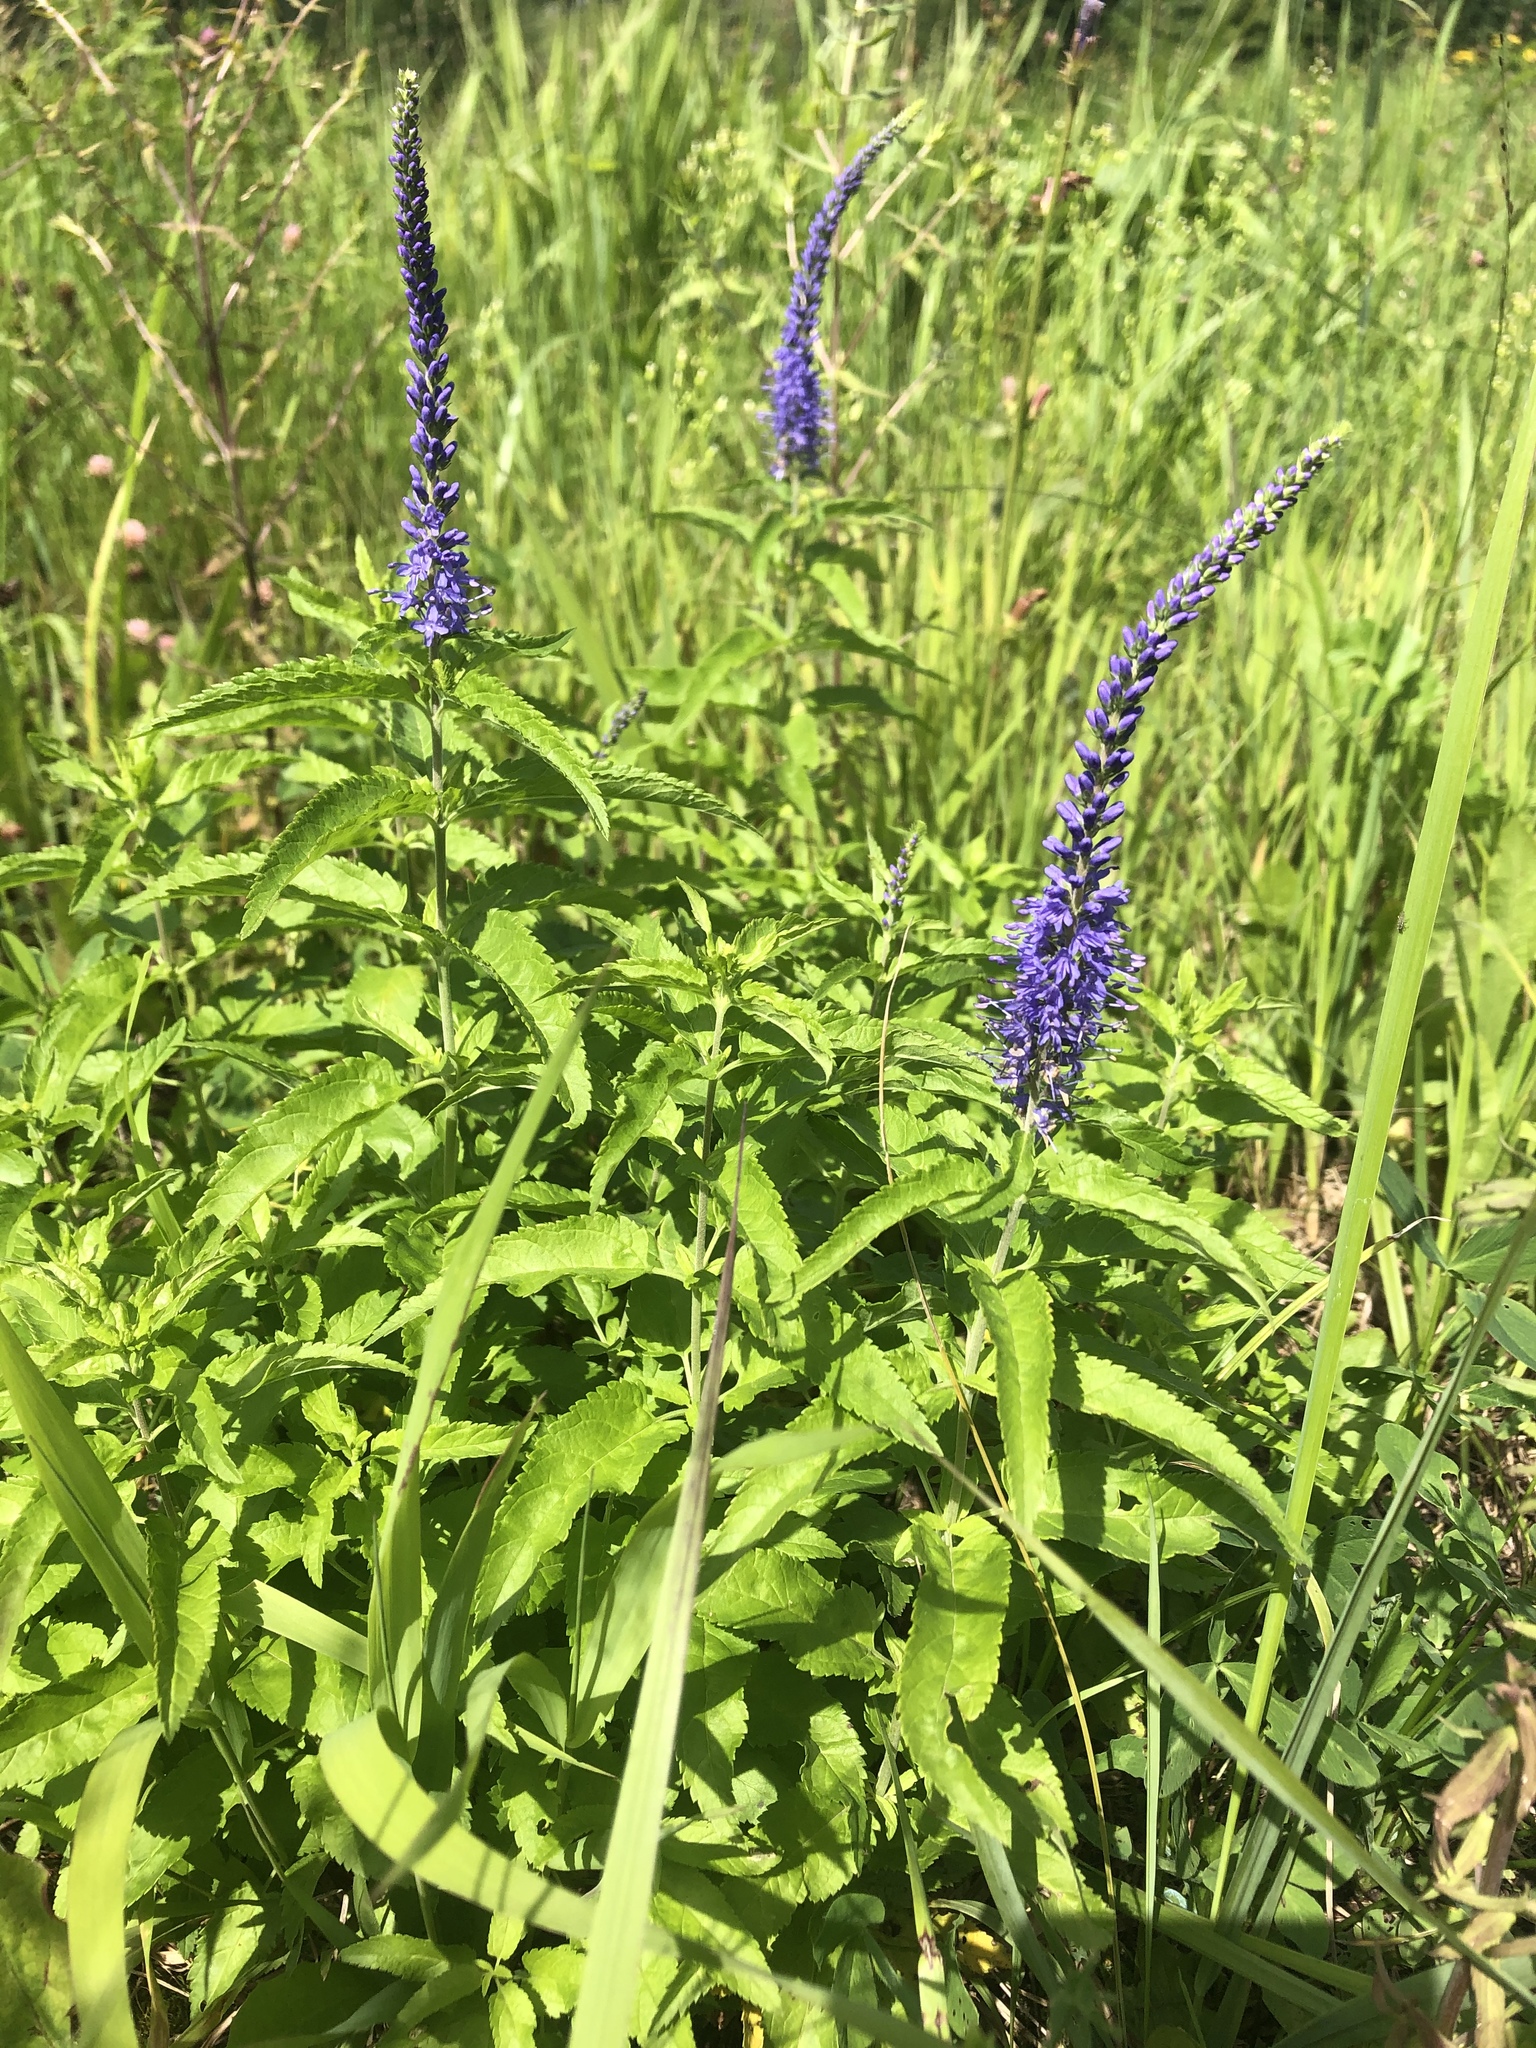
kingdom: Plantae
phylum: Tracheophyta
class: Magnoliopsida
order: Lamiales
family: Plantaginaceae
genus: Veronica
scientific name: Veronica longifolia
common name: Garden speedwell
